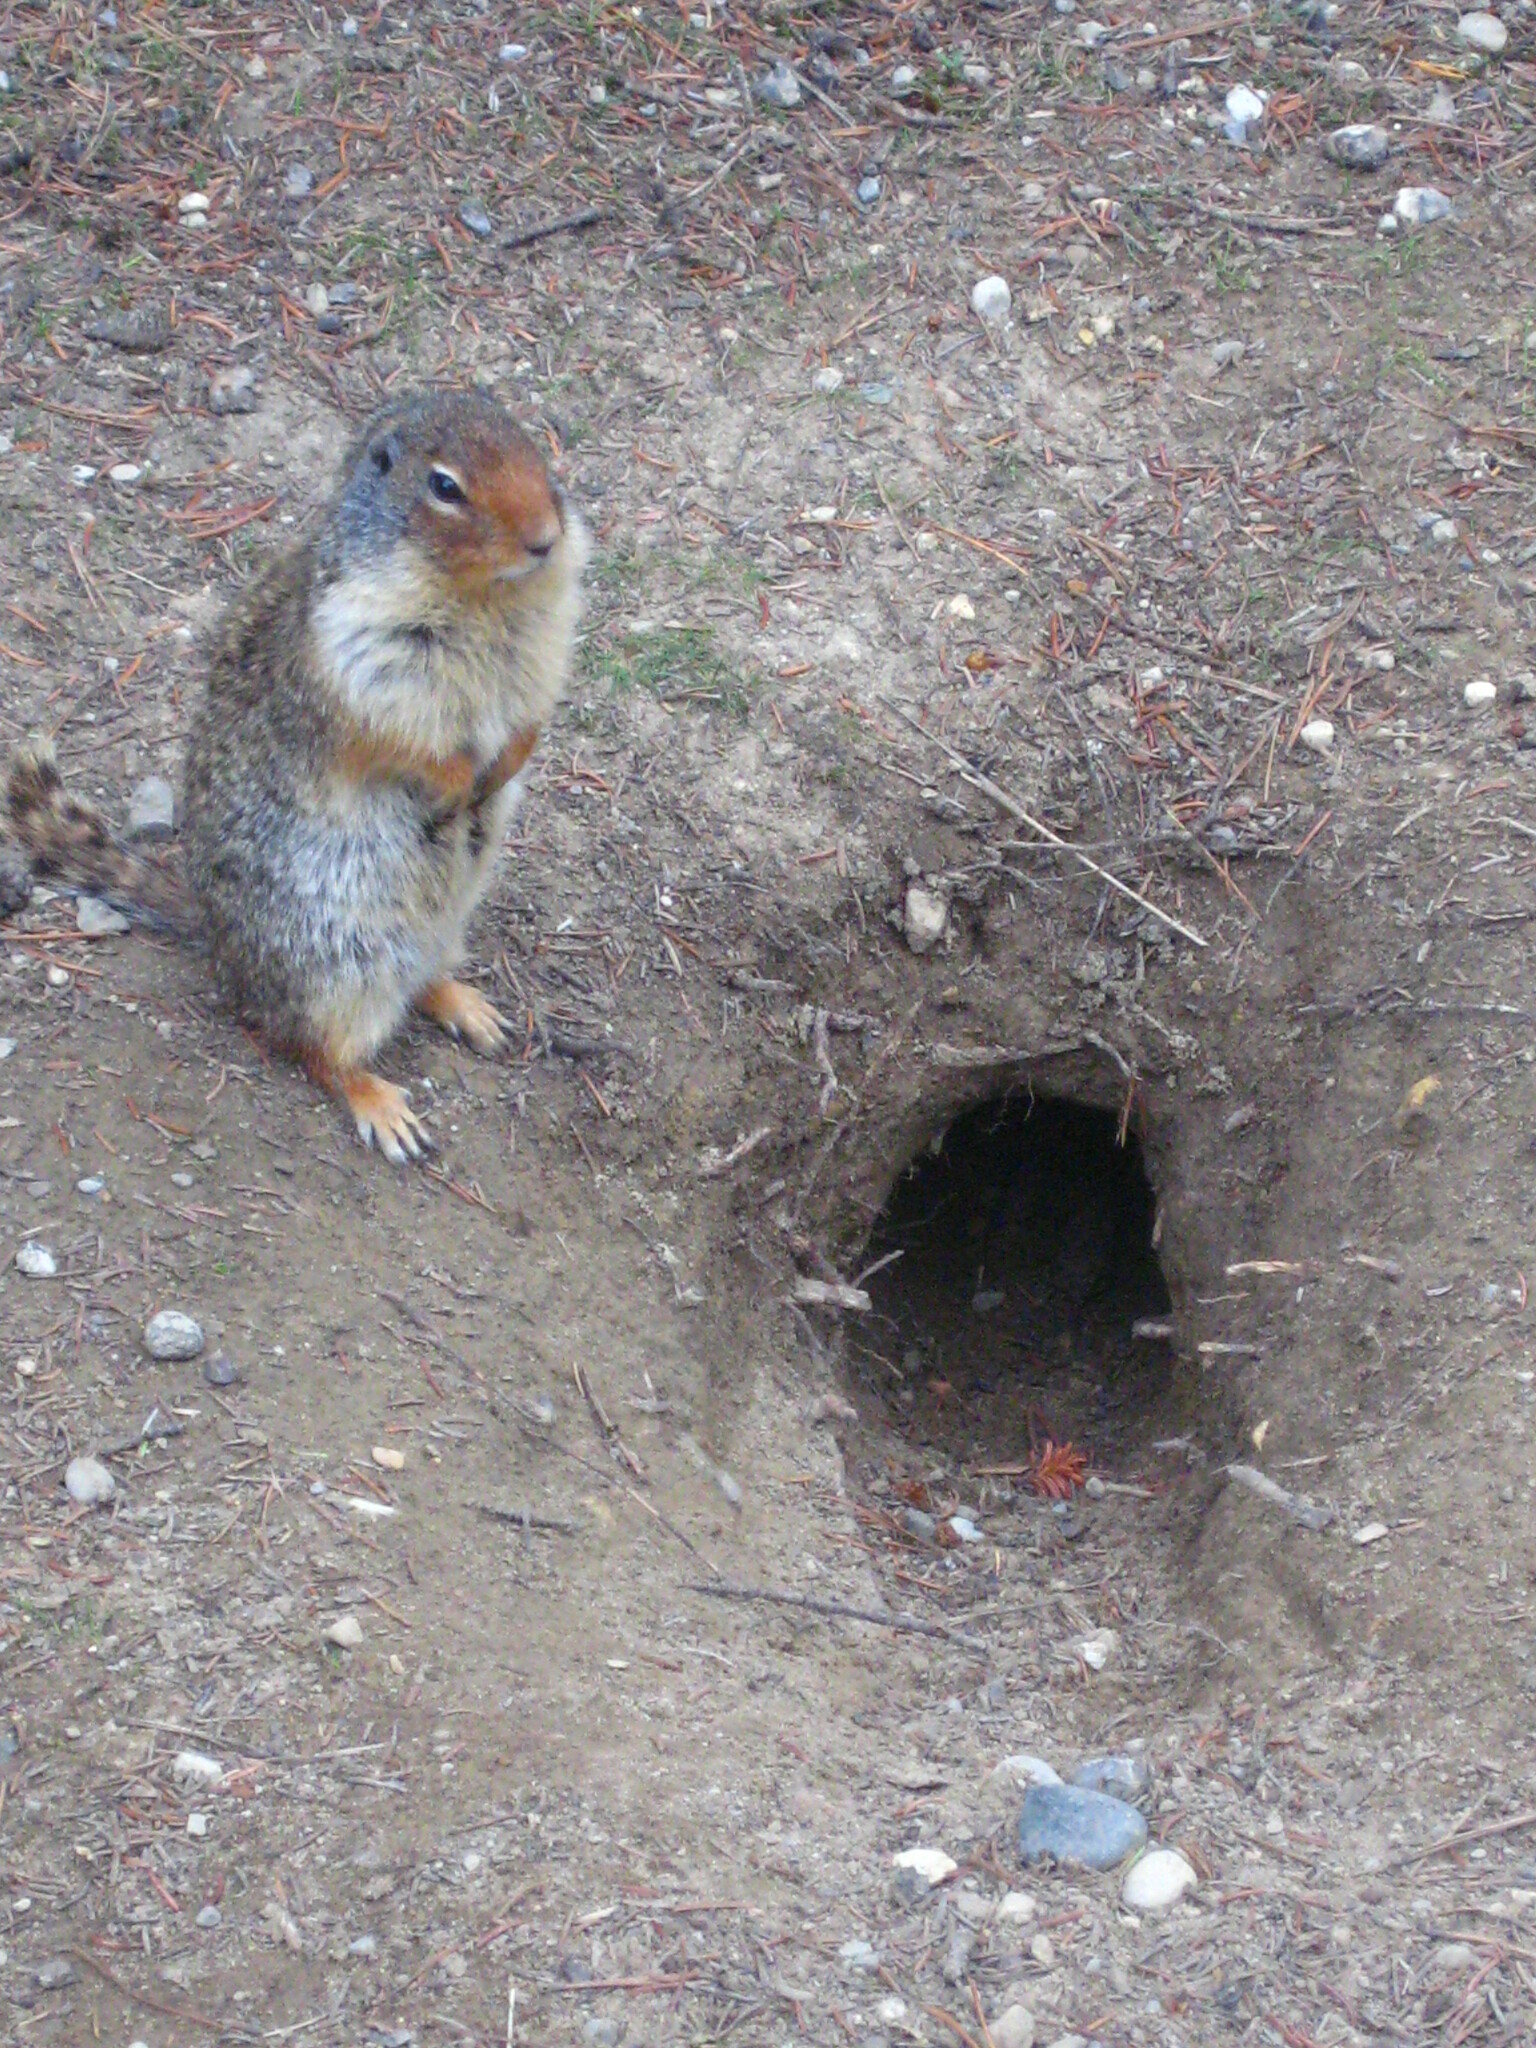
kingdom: Animalia
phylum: Chordata
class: Mammalia
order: Rodentia
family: Sciuridae
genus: Urocitellus
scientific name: Urocitellus columbianus
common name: Columbian ground squirrel
